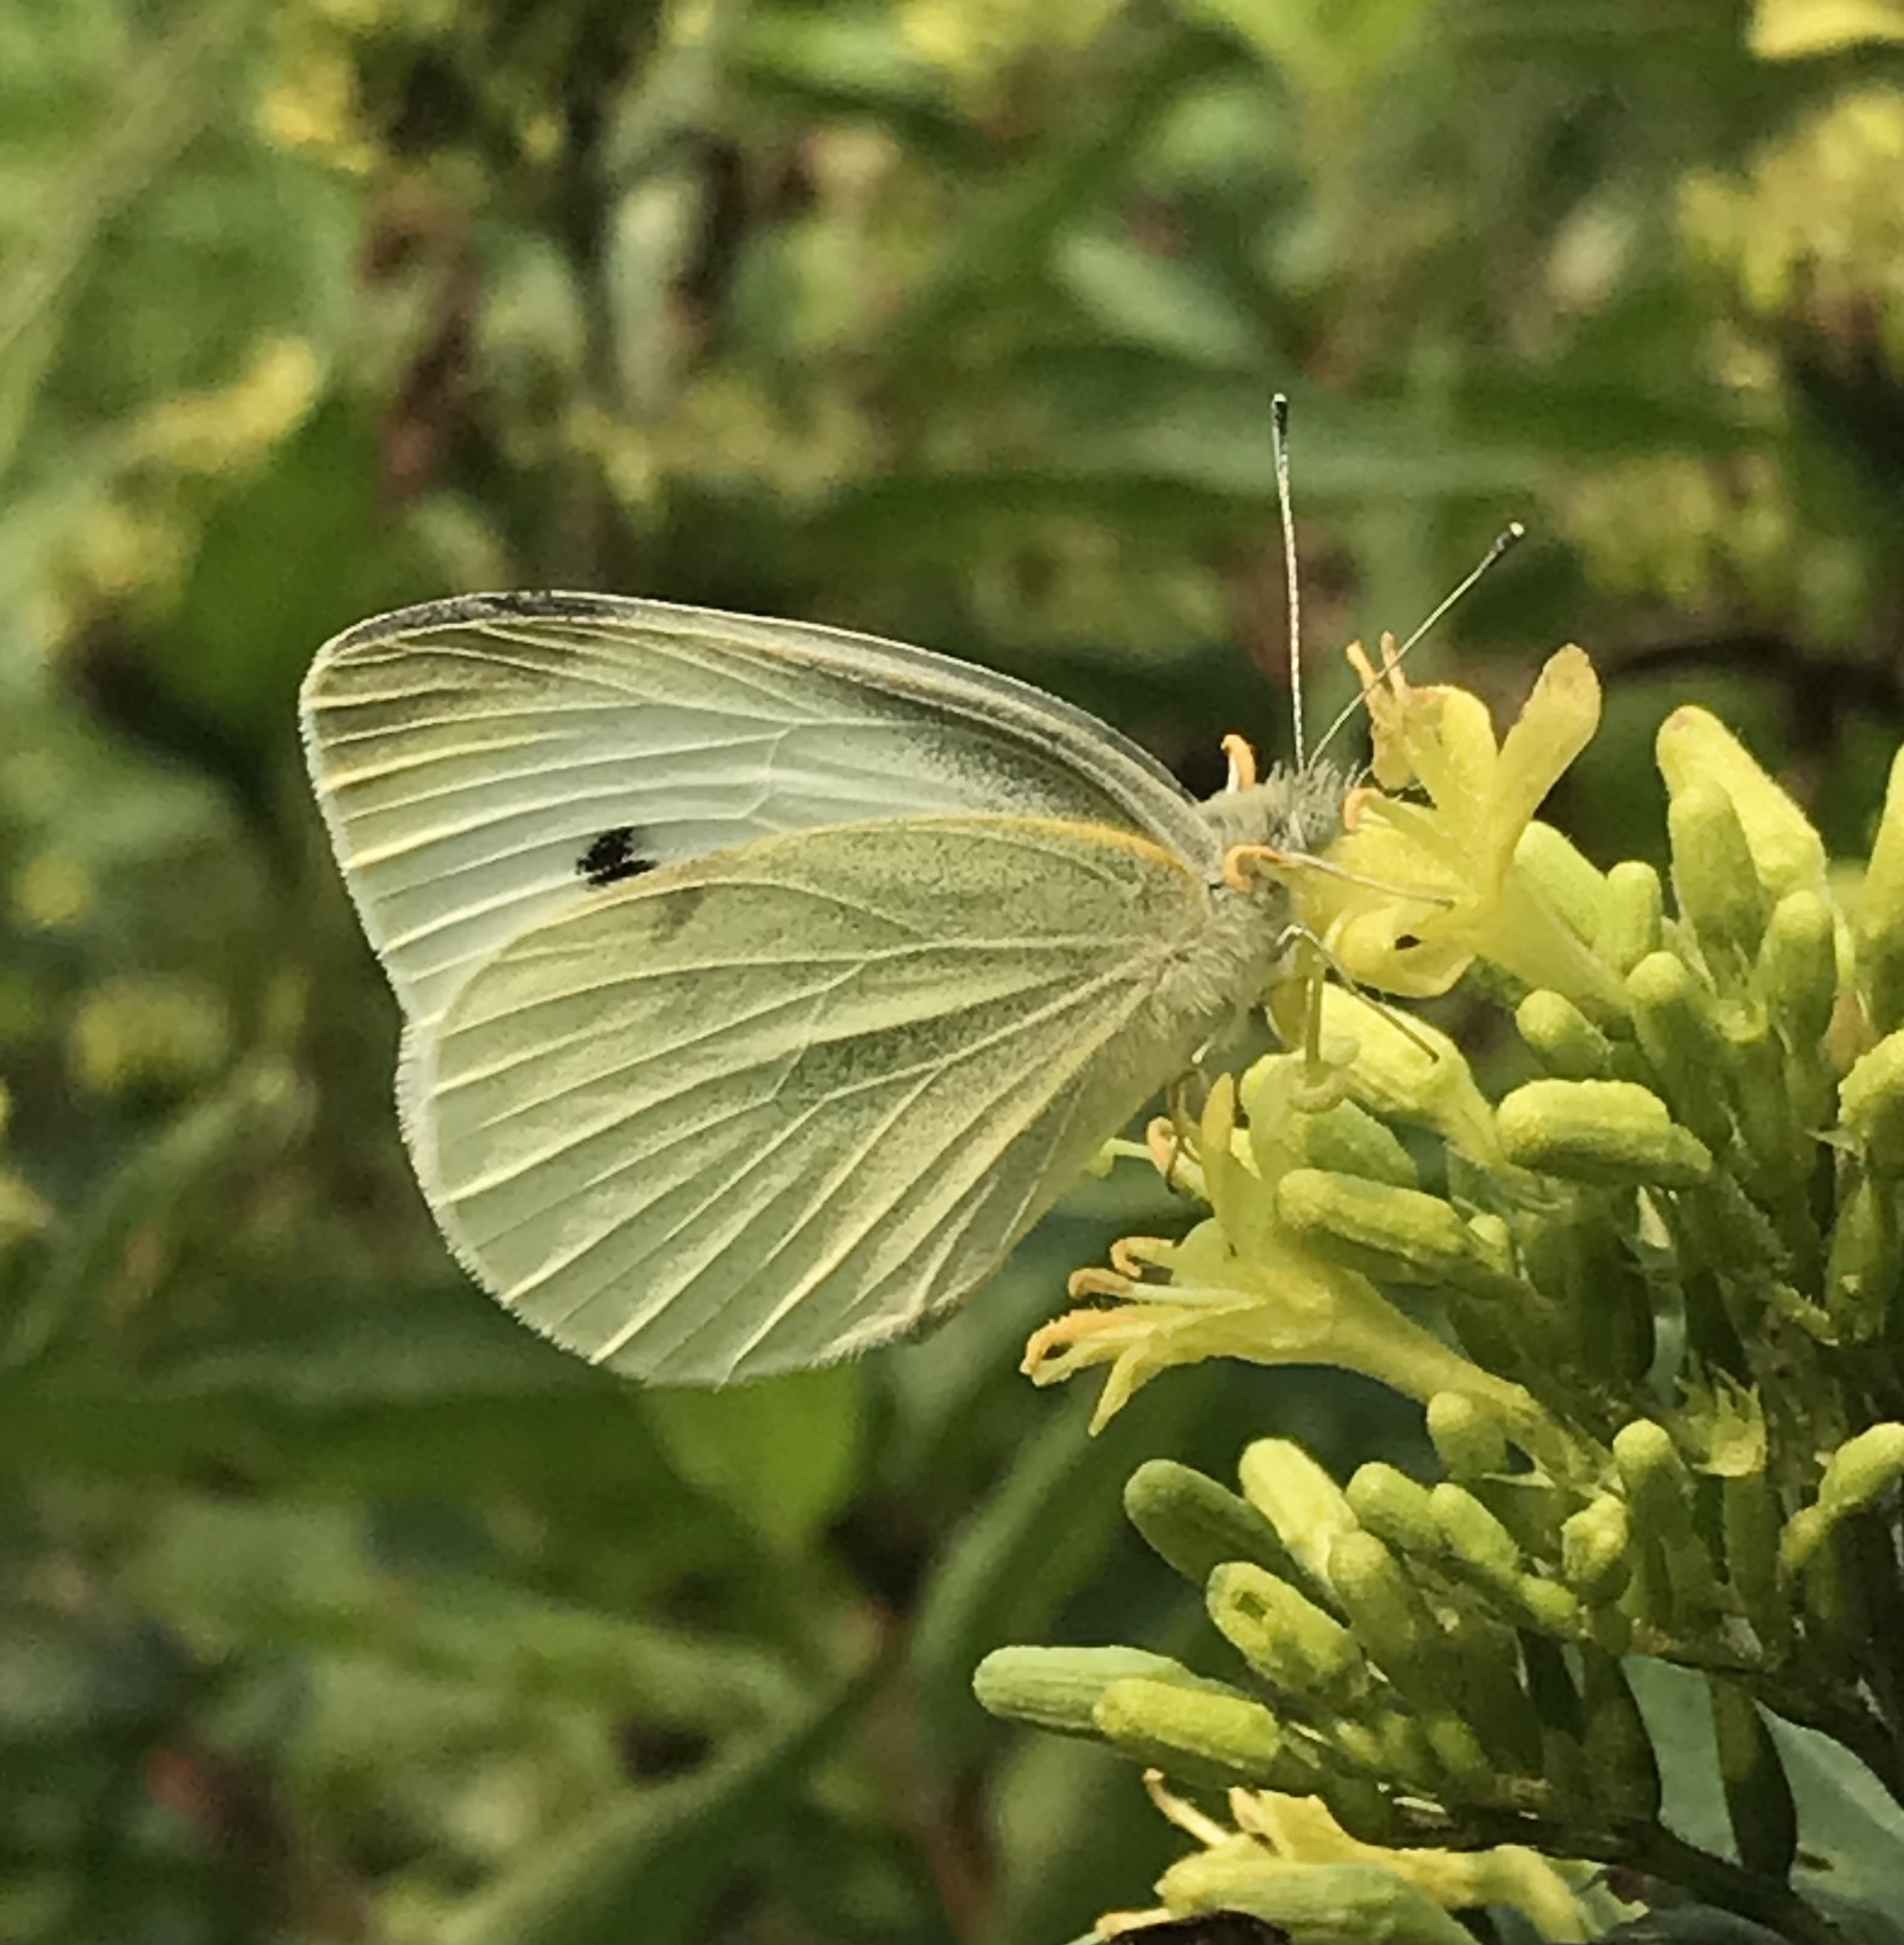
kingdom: Animalia
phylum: Arthropoda
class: Insecta
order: Lepidoptera
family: Pieridae
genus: Pieris
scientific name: Pieris rapae
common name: Small white
